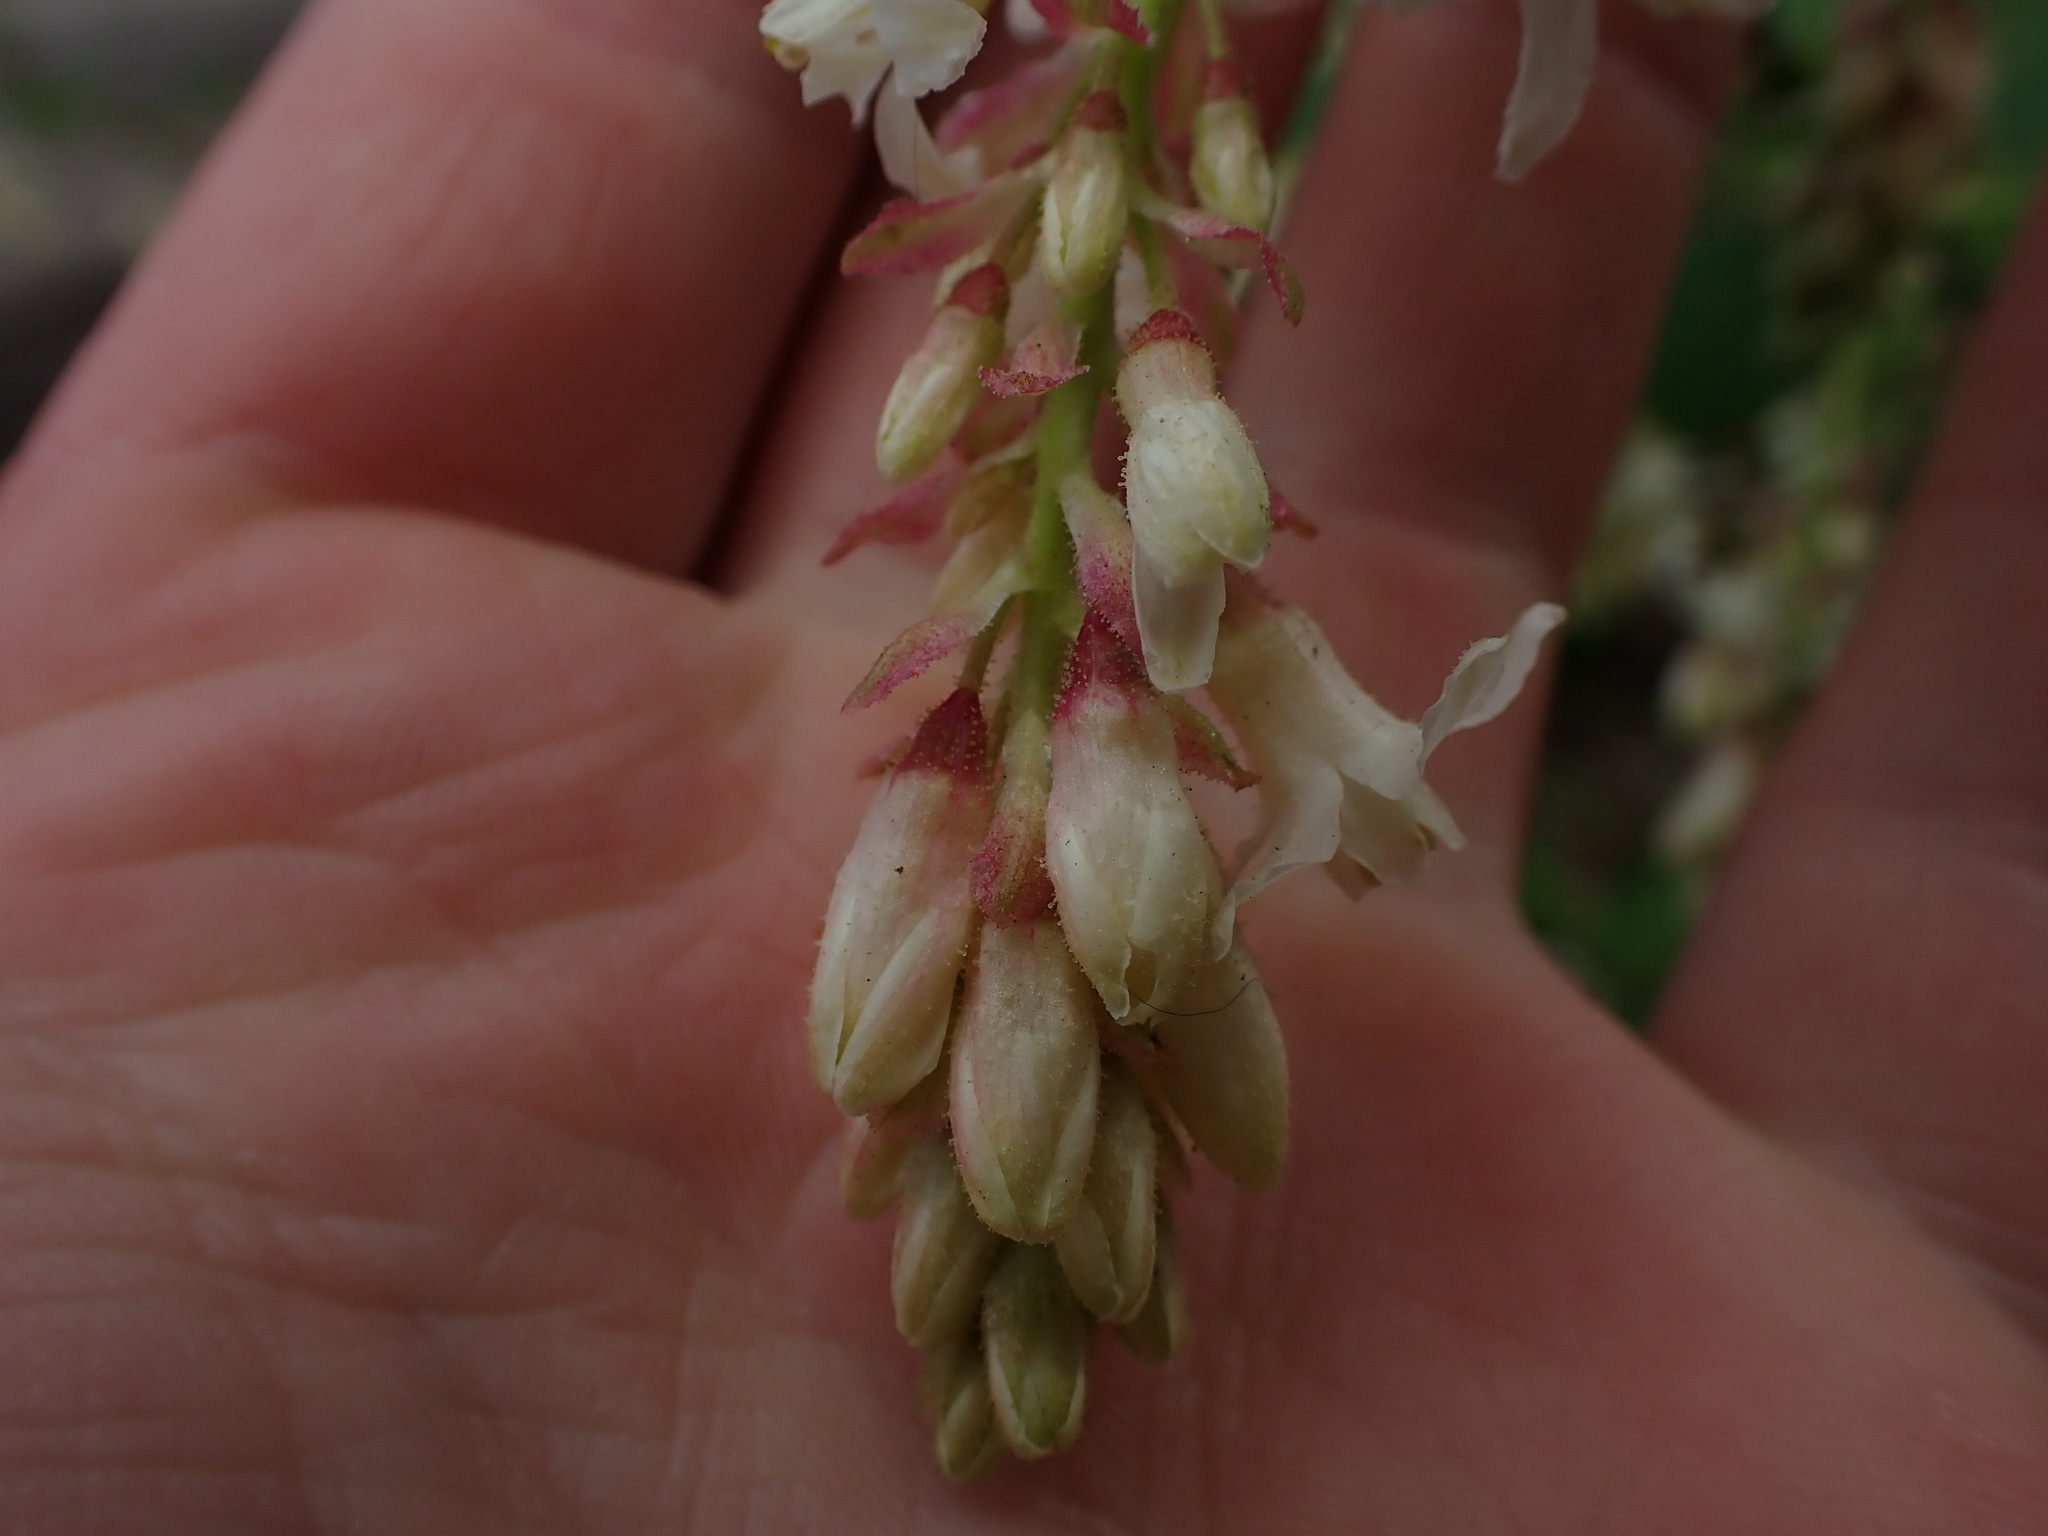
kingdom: Plantae
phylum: Tracheophyta
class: Magnoliopsida
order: Saxifragales
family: Grossulariaceae
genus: Ribes
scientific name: Ribes sanguineum
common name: Flowering currant
